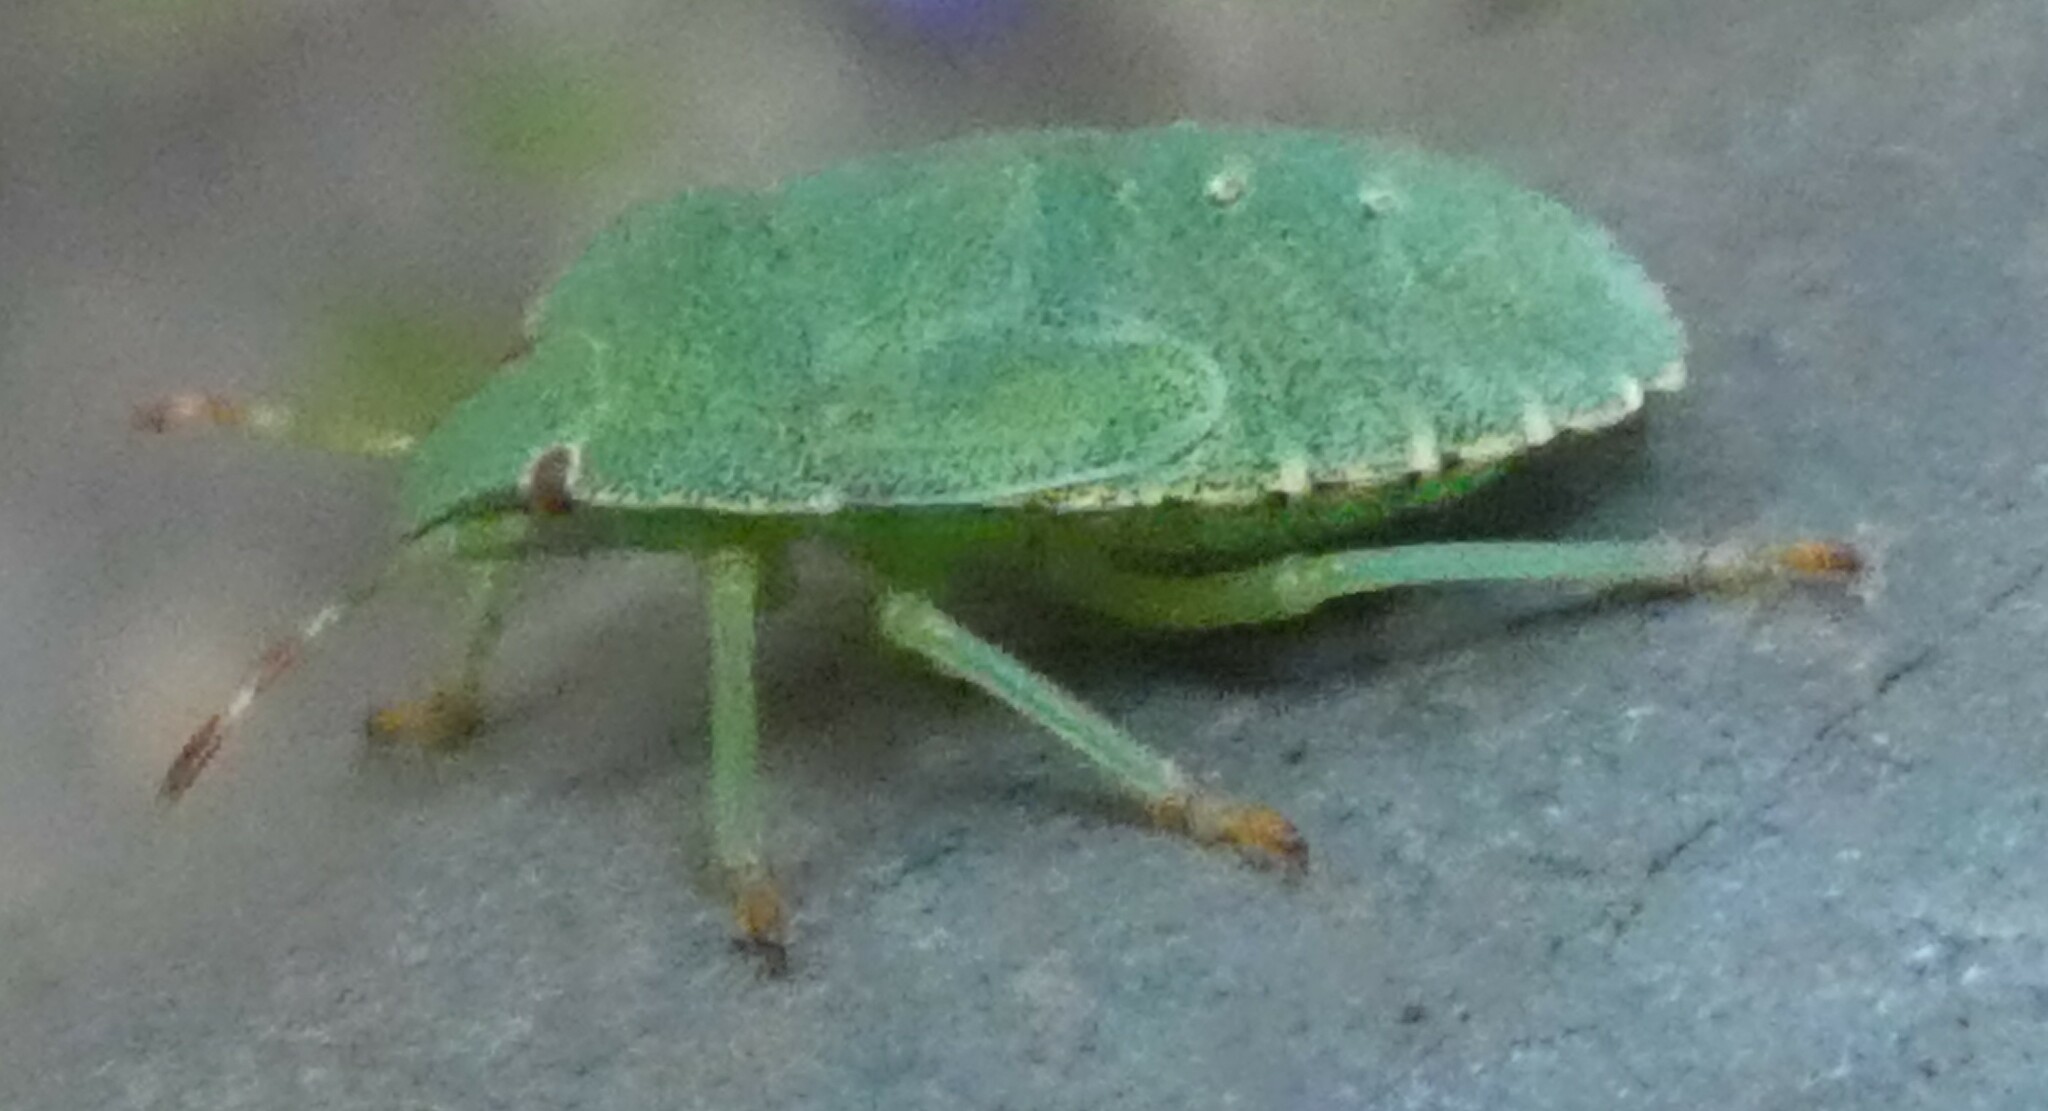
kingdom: Animalia
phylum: Arthropoda
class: Insecta
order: Hemiptera
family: Pentatomidae
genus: Palomena
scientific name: Palomena prasina
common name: Green shieldbug
